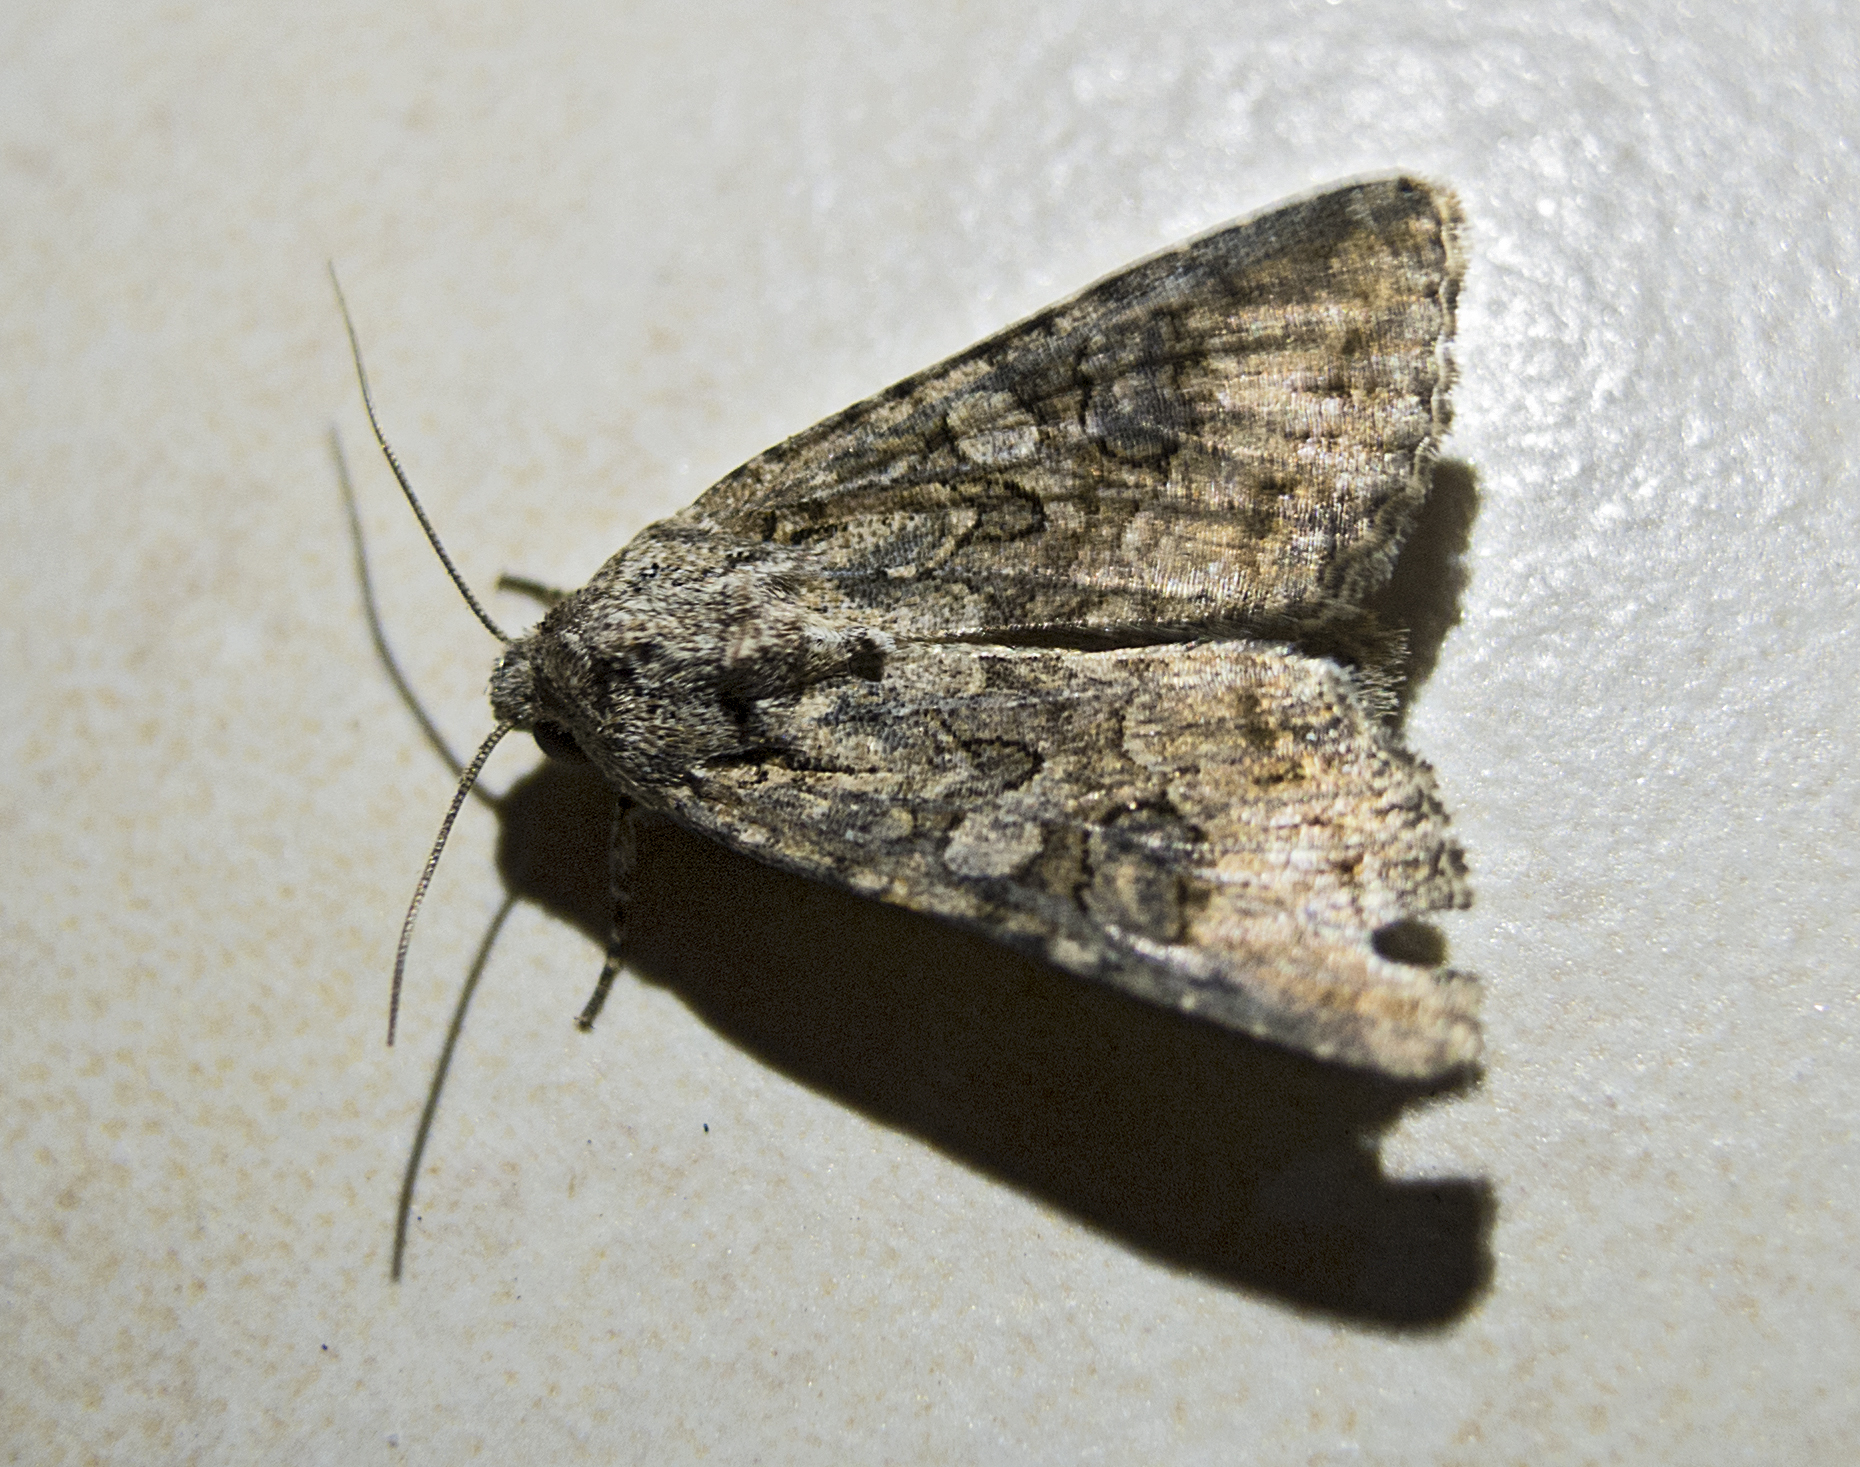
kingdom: Animalia
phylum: Arthropoda
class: Insecta
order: Lepidoptera
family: Noctuidae
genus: Anarta
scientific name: Anarta trifolii
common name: Clover cutworm moth
